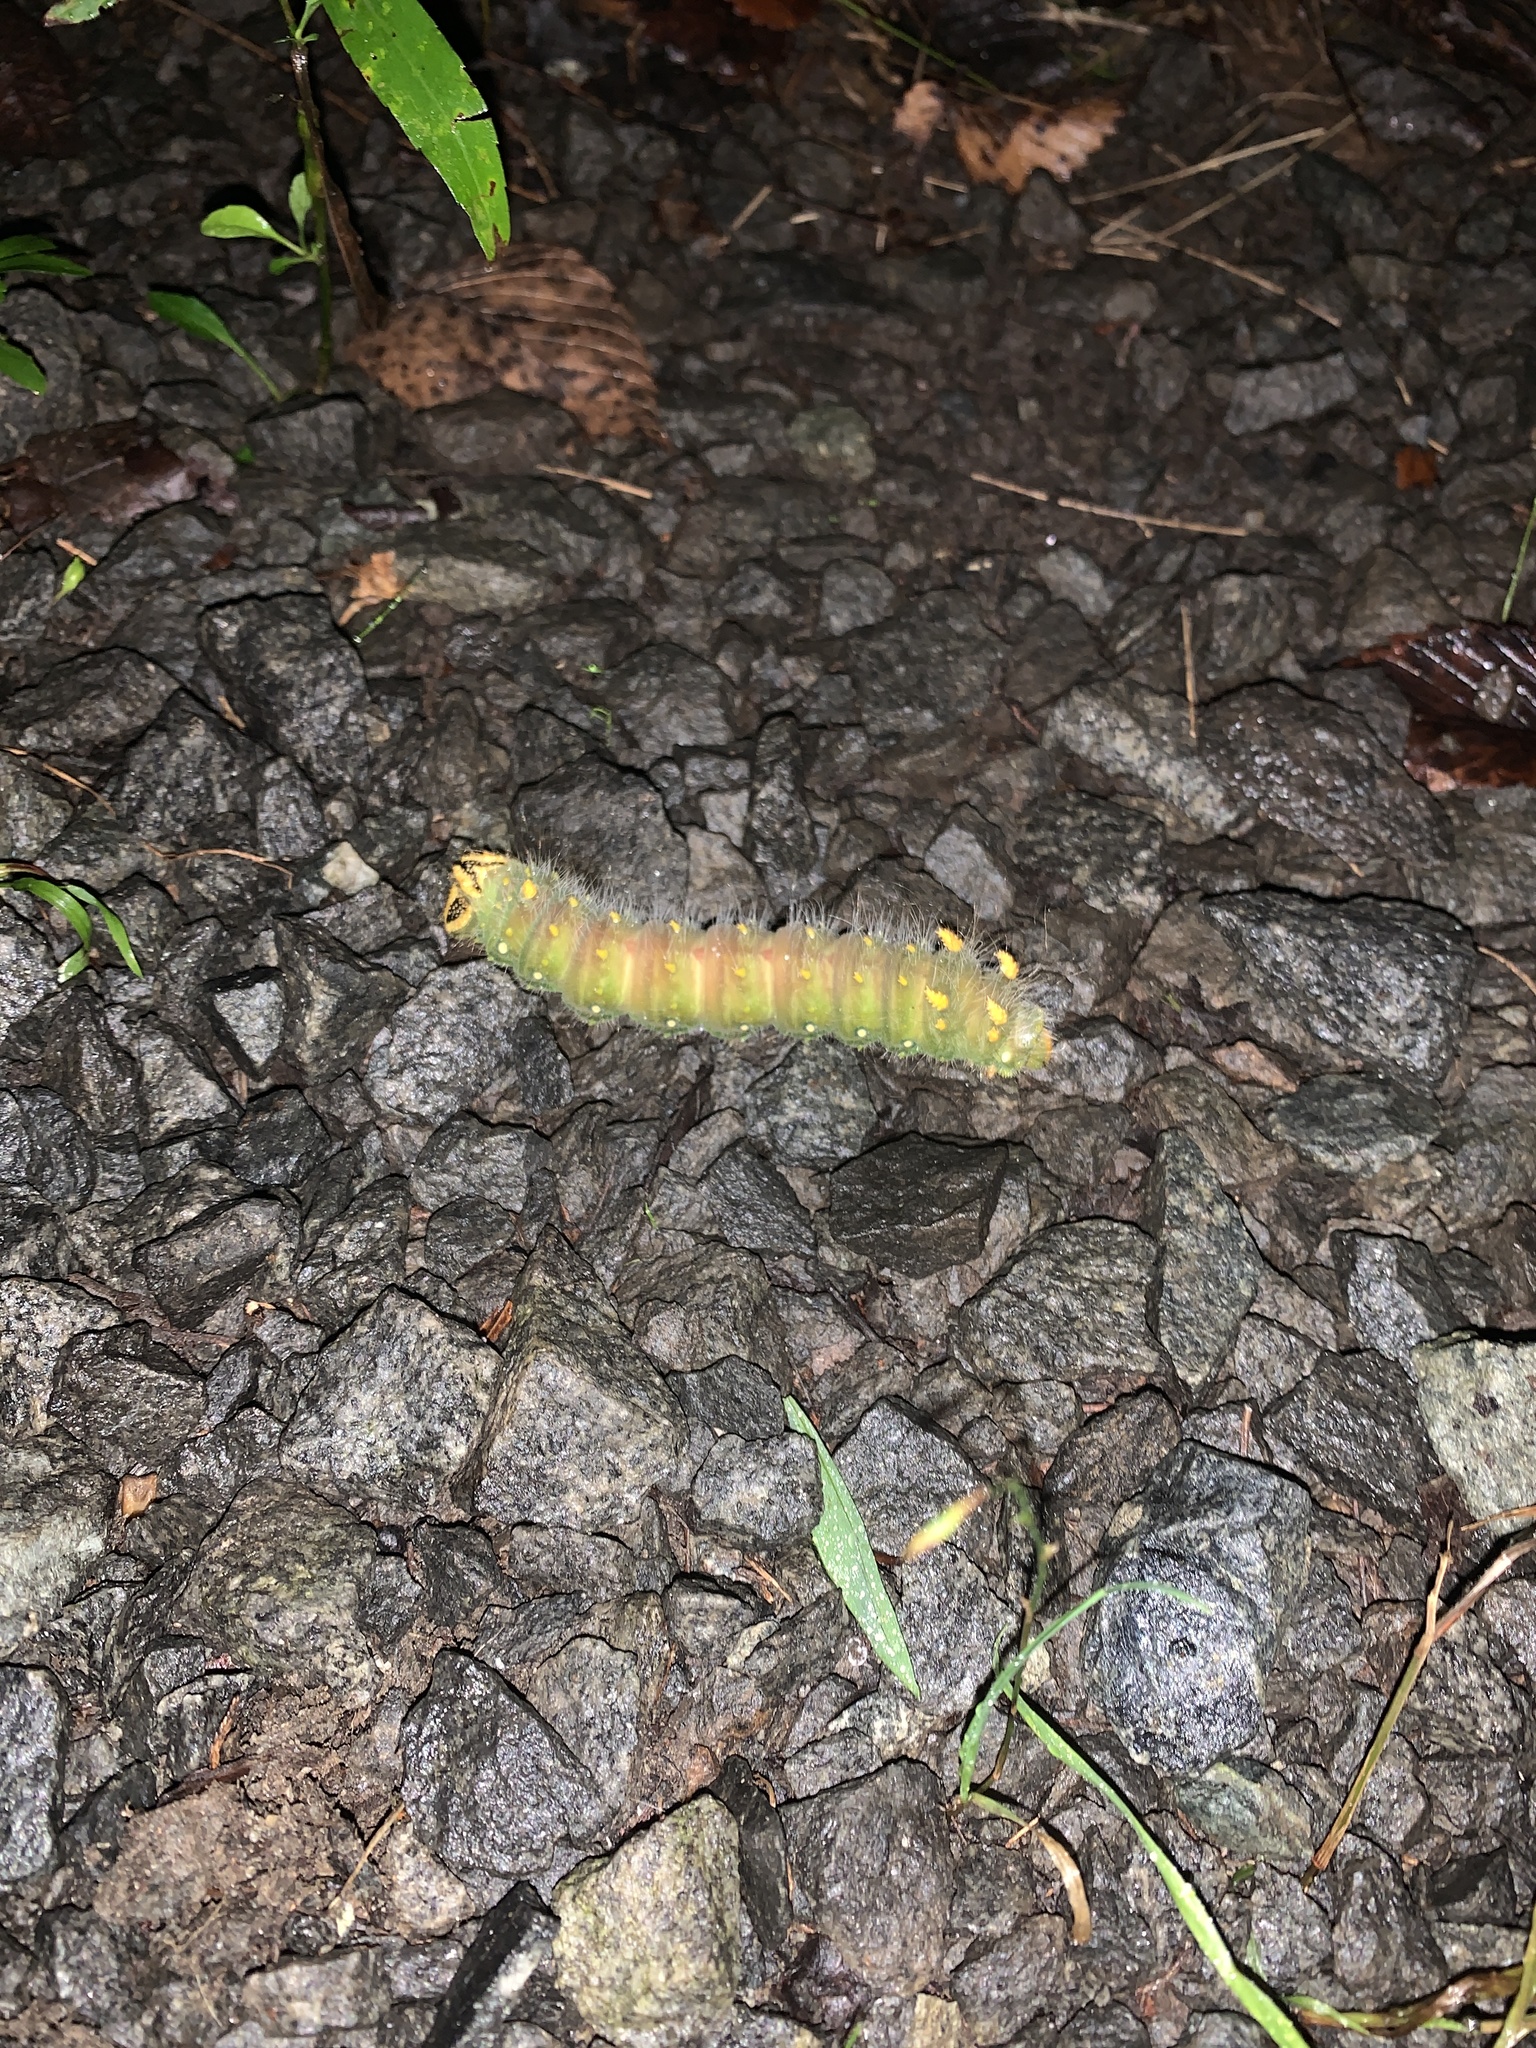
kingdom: Animalia
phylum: Arthropoda
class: Insecta
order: Lepidoptera
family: Saturniidae
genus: Eacles
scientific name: Eacles imperialis
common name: Imperial moth
